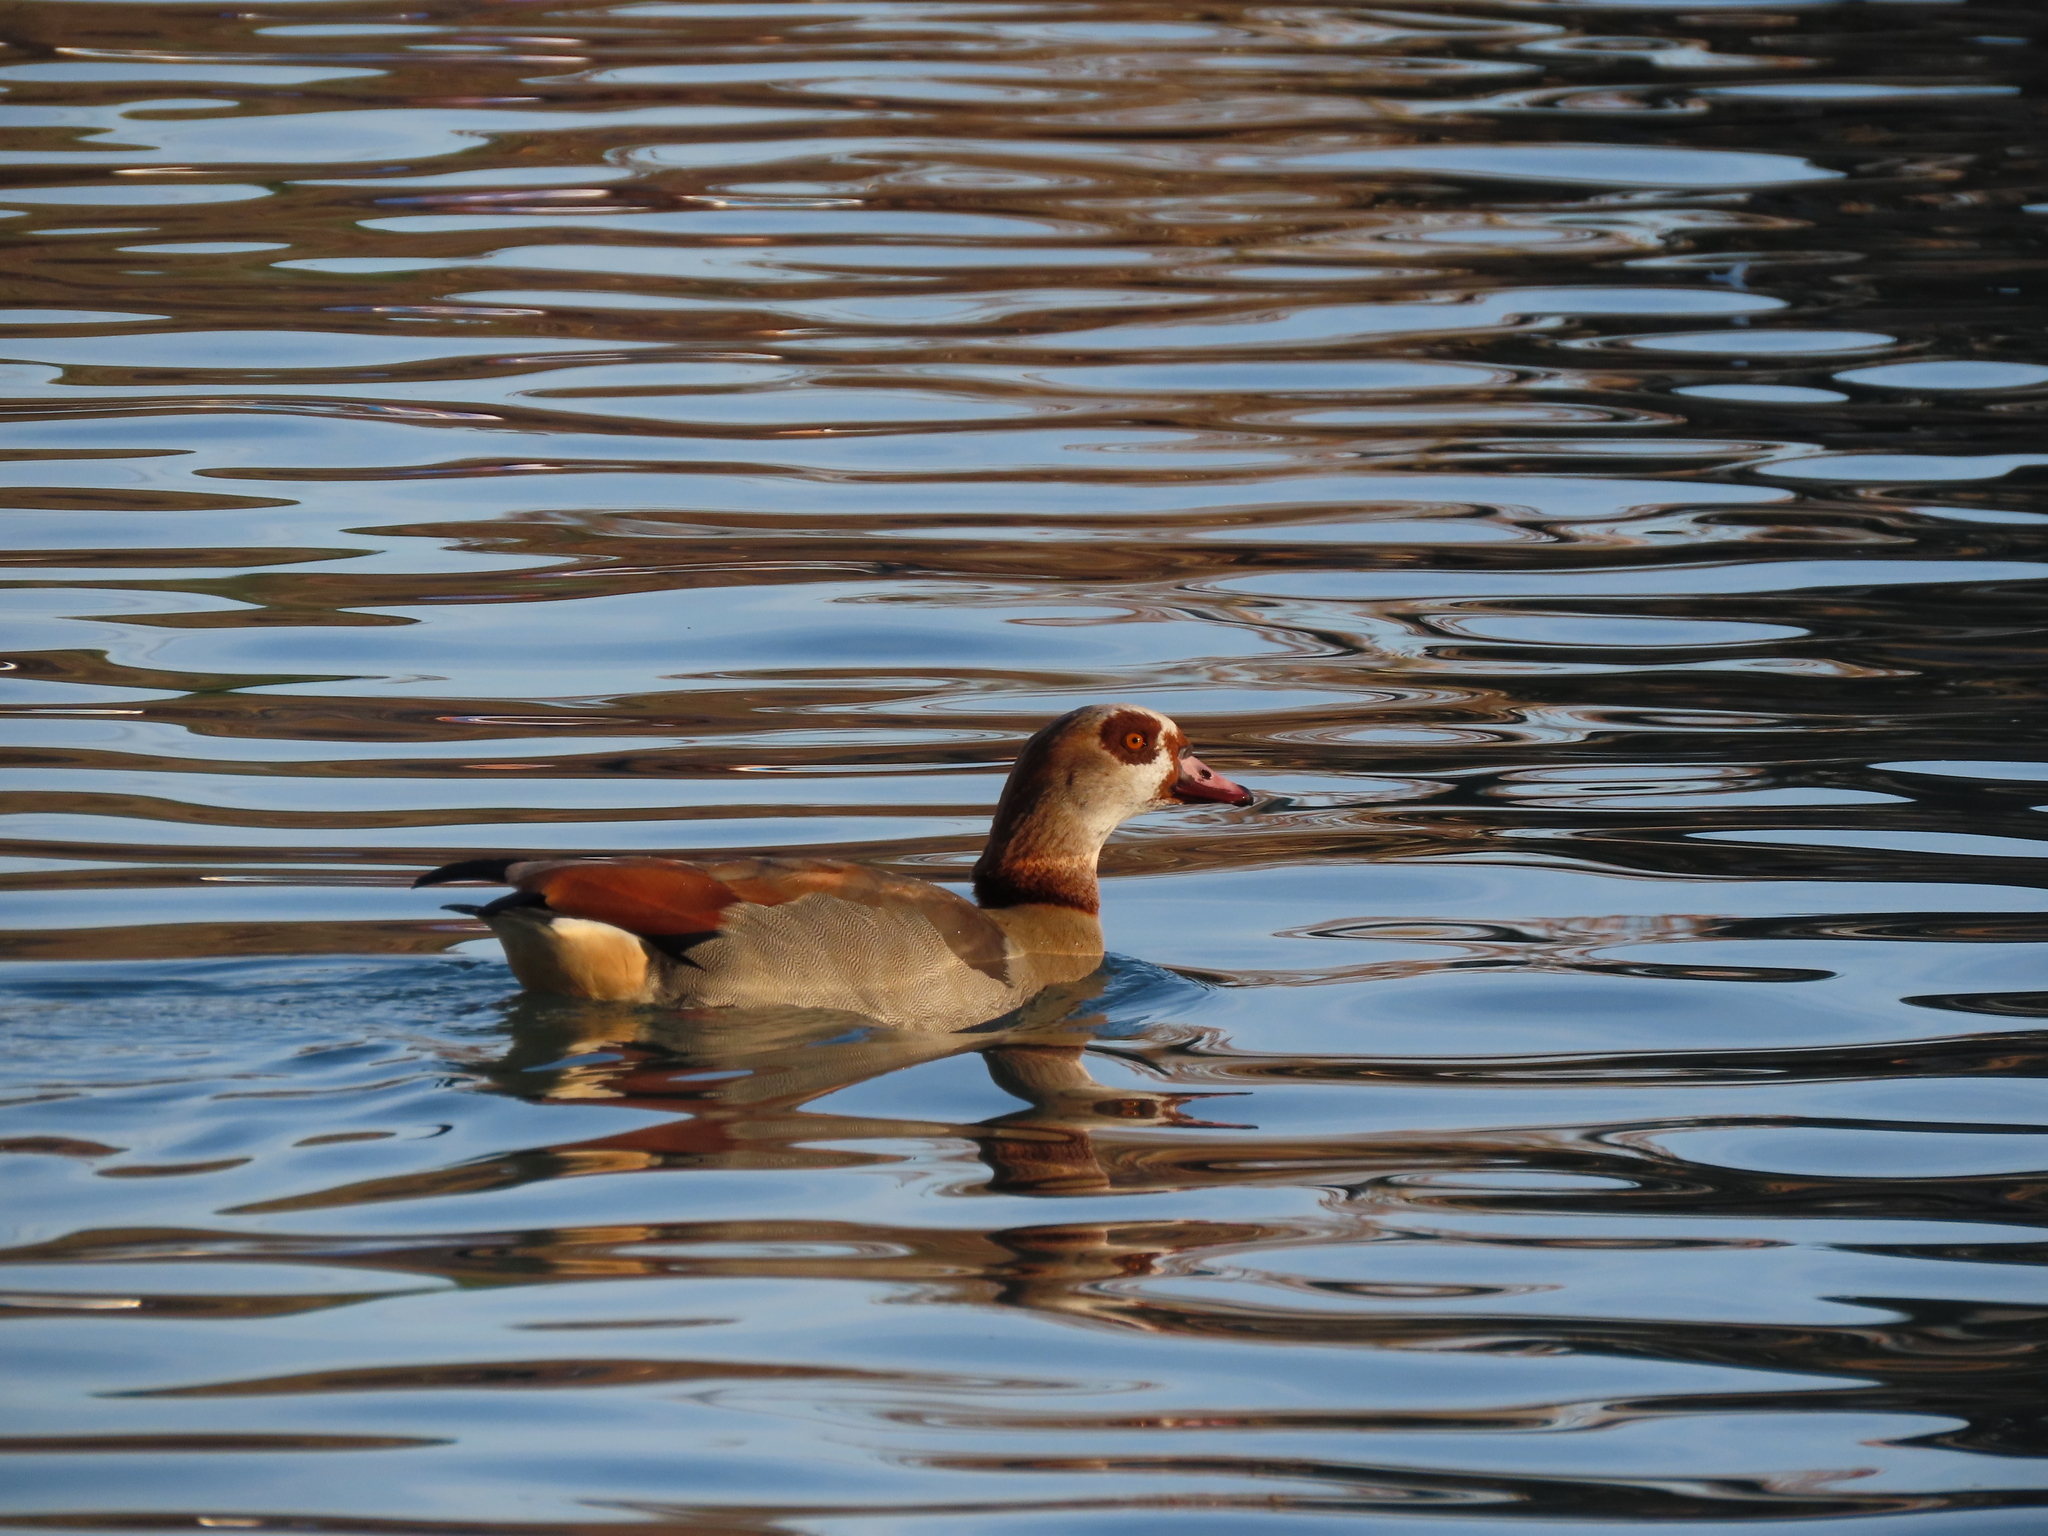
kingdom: Animalia
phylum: Chordata
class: Aves
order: Anseriformes
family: Anatidae
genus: Alopochen
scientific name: Alopochen aegyptiaca
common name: Egyptian goose
